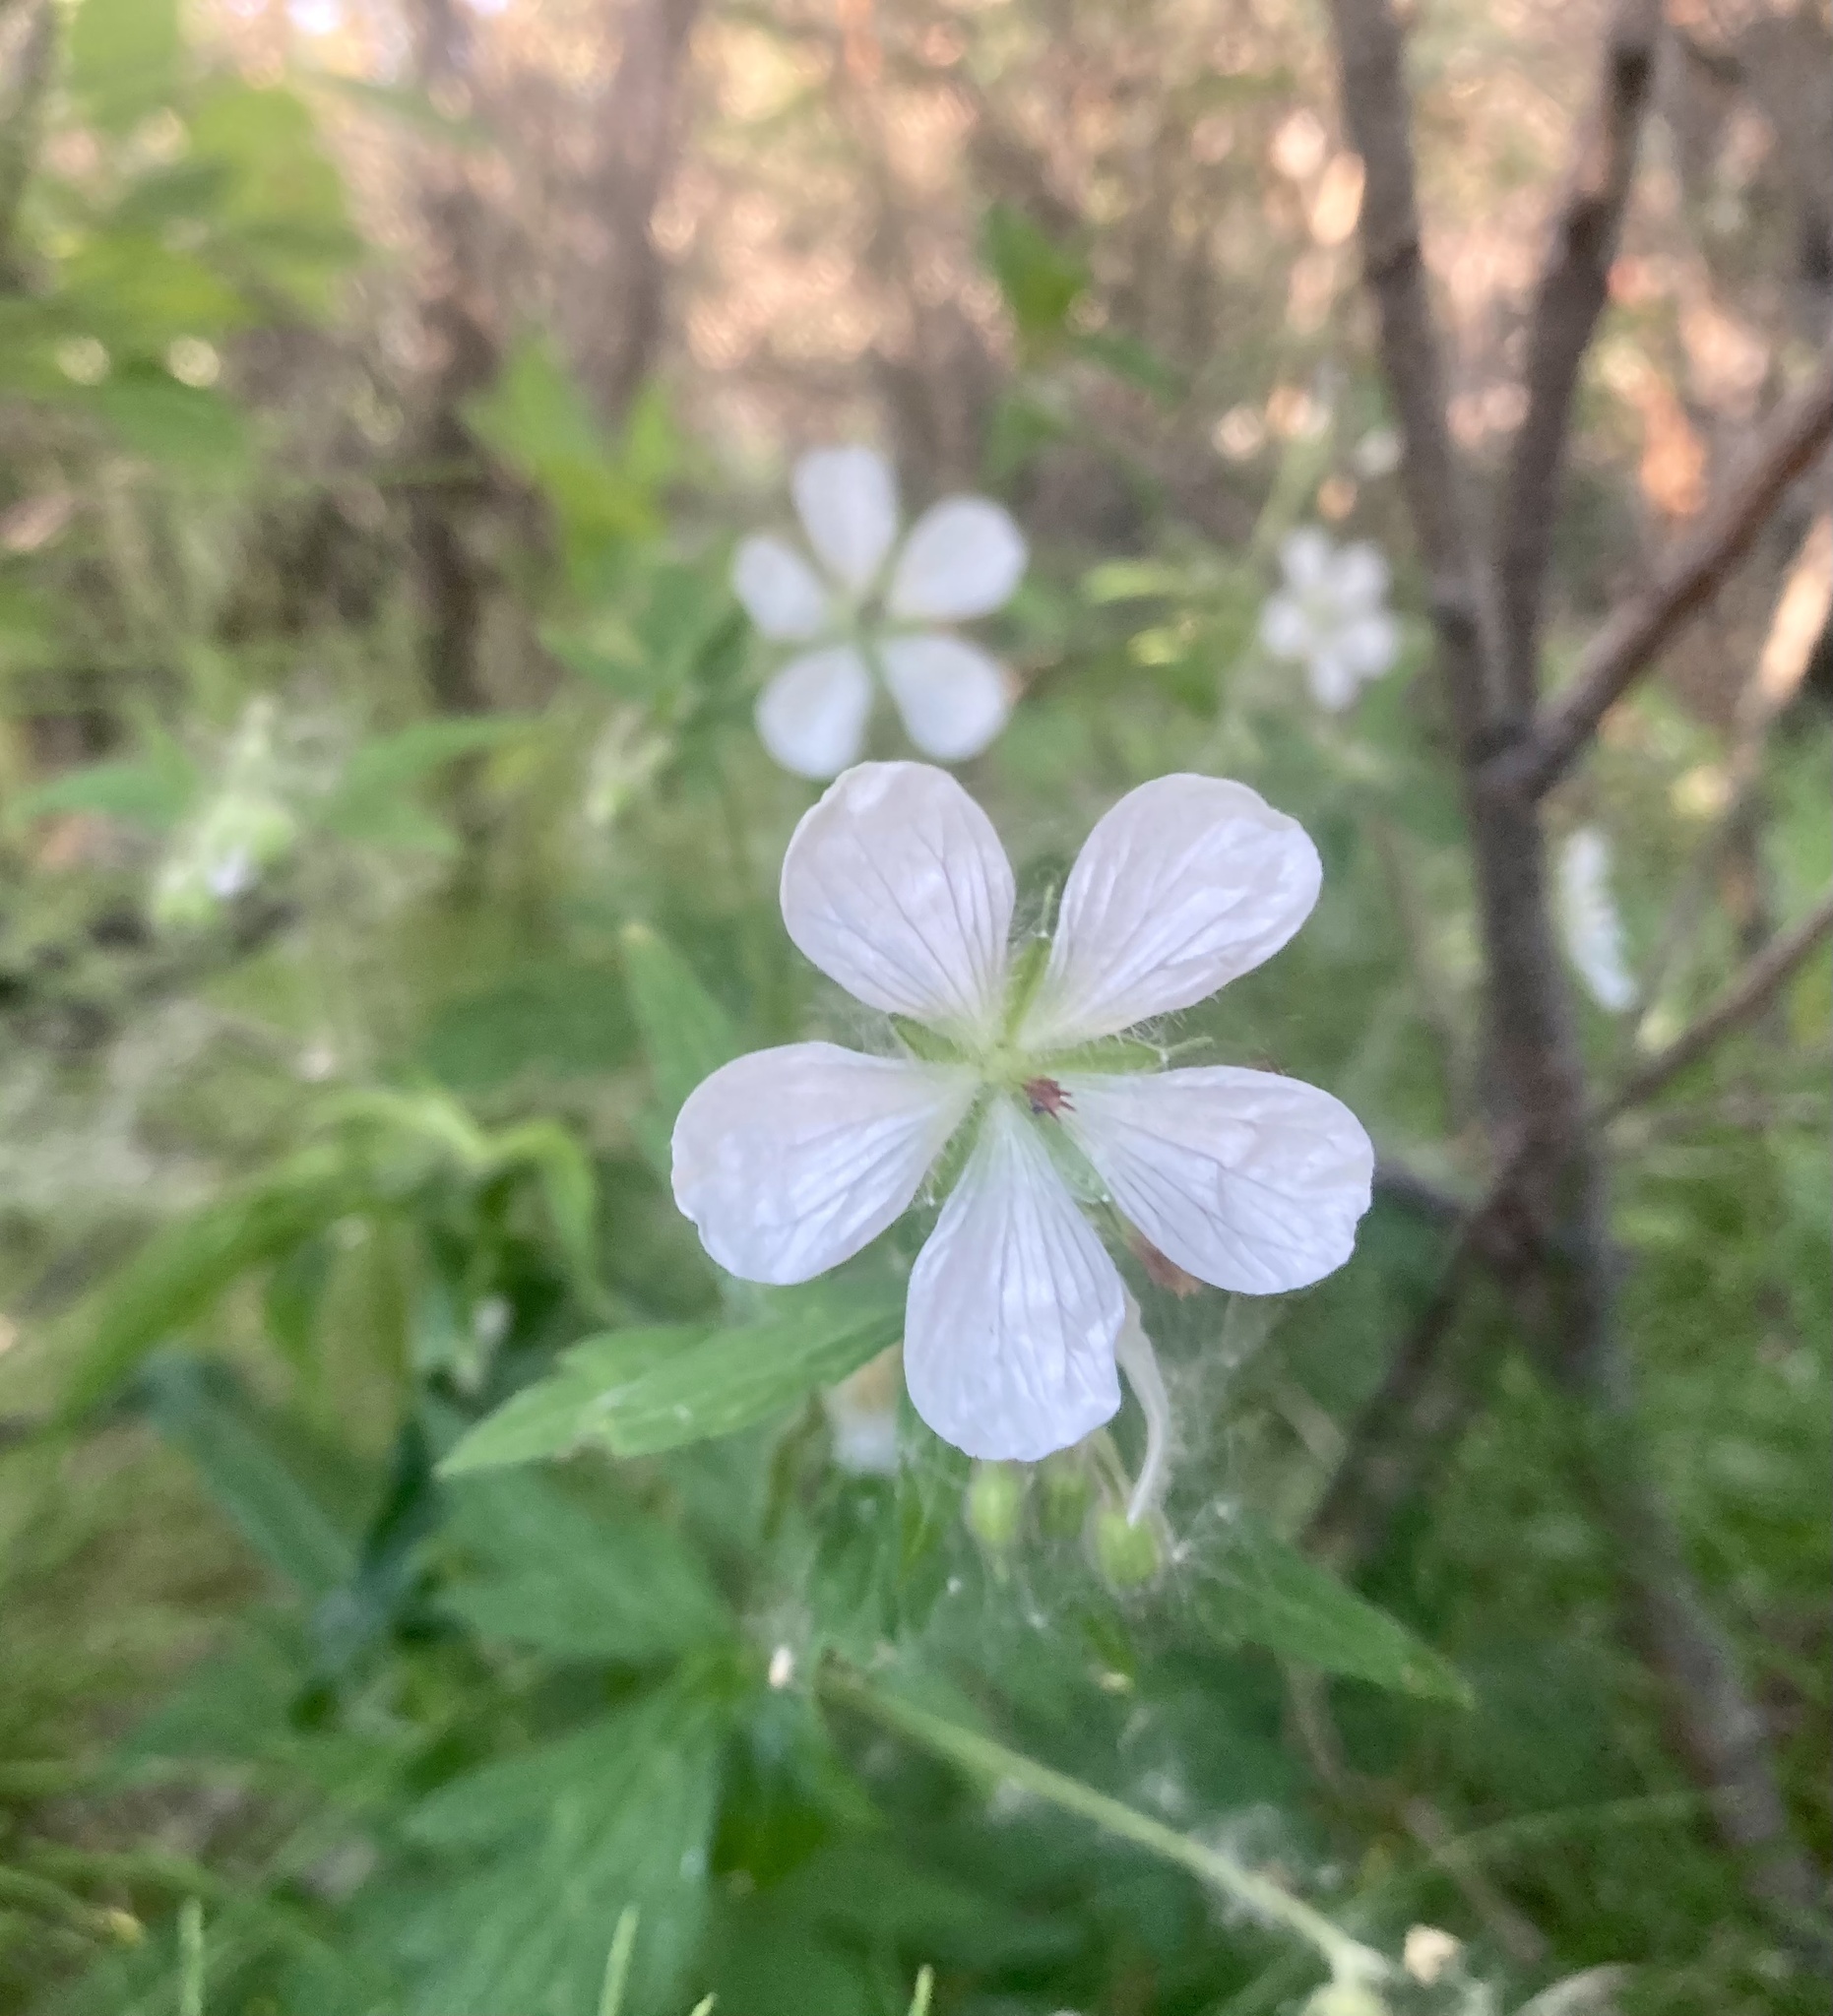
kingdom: Plantae
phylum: Tracheophyta
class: Magnoliopsida
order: Geraniales
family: Geraniaceae
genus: Geranium
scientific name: Geranium richardsonii
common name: Richardson's crane's-bill
